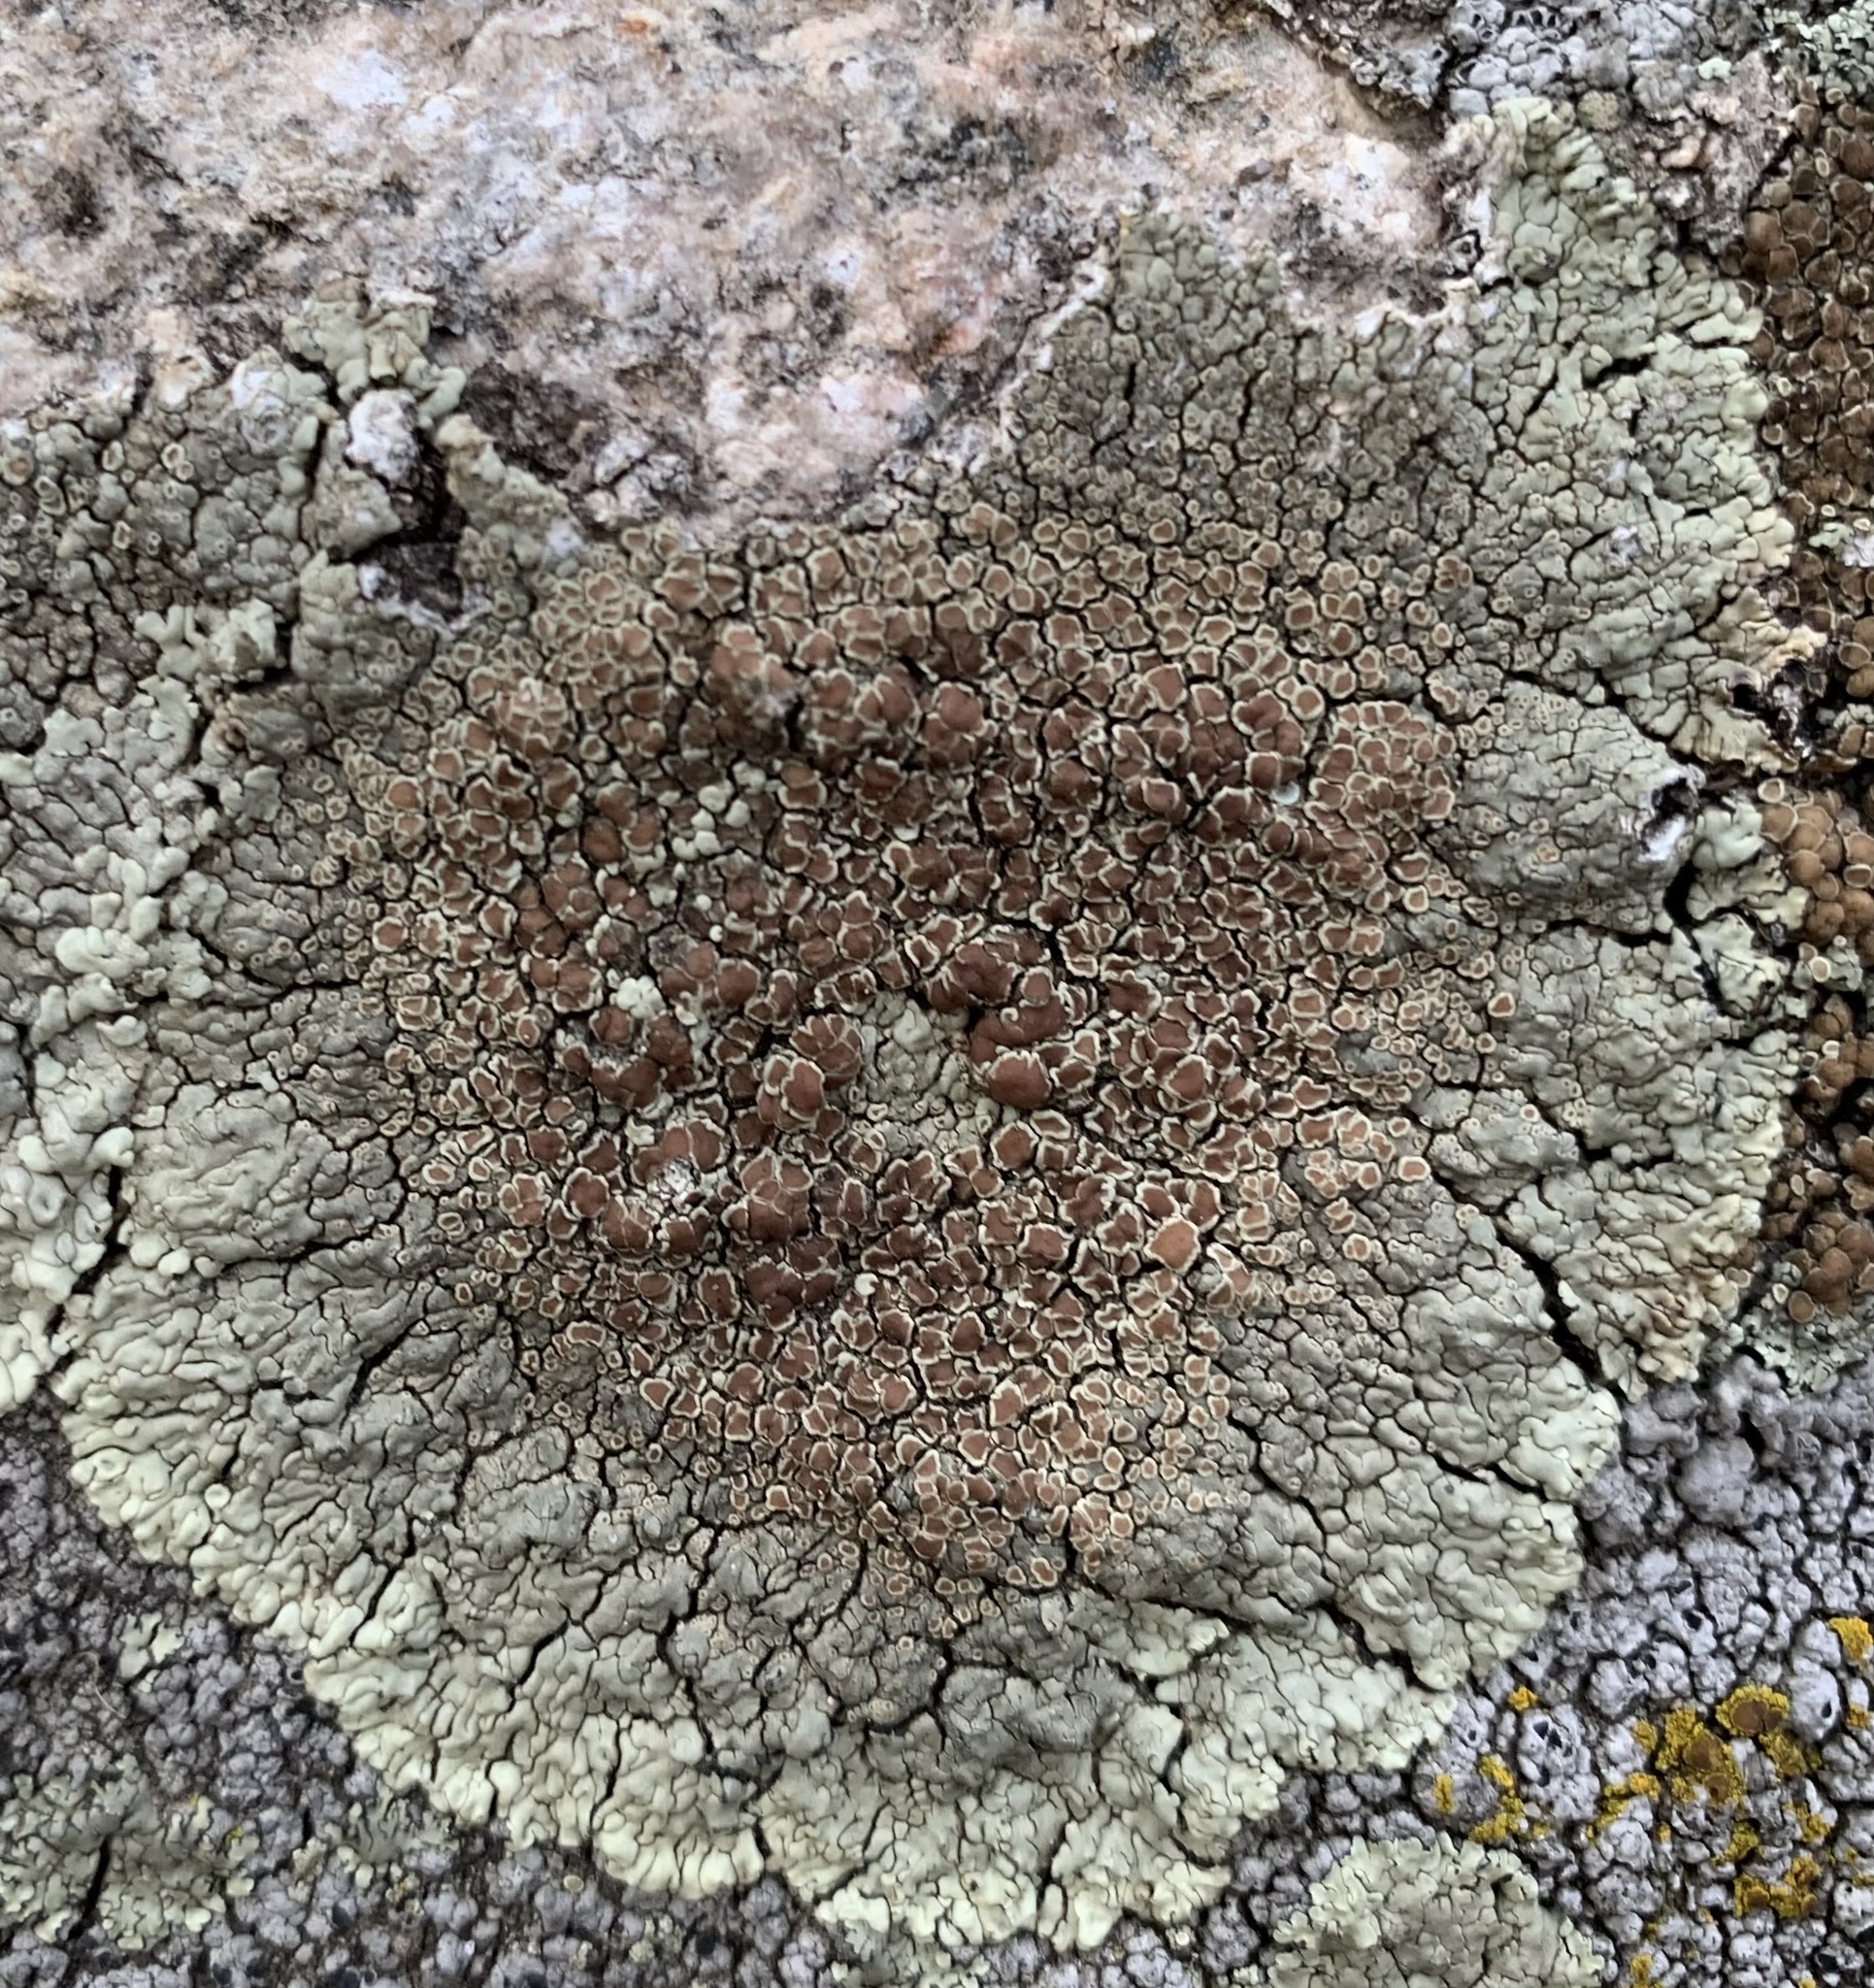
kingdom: Fungi
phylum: Ascomycota
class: Lecanoromycetes
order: Lecanorales
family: Lecanoraceae
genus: Protoparmeliopsis
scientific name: Protoparmeliopsis muralis
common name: Stonewall rim lichen
